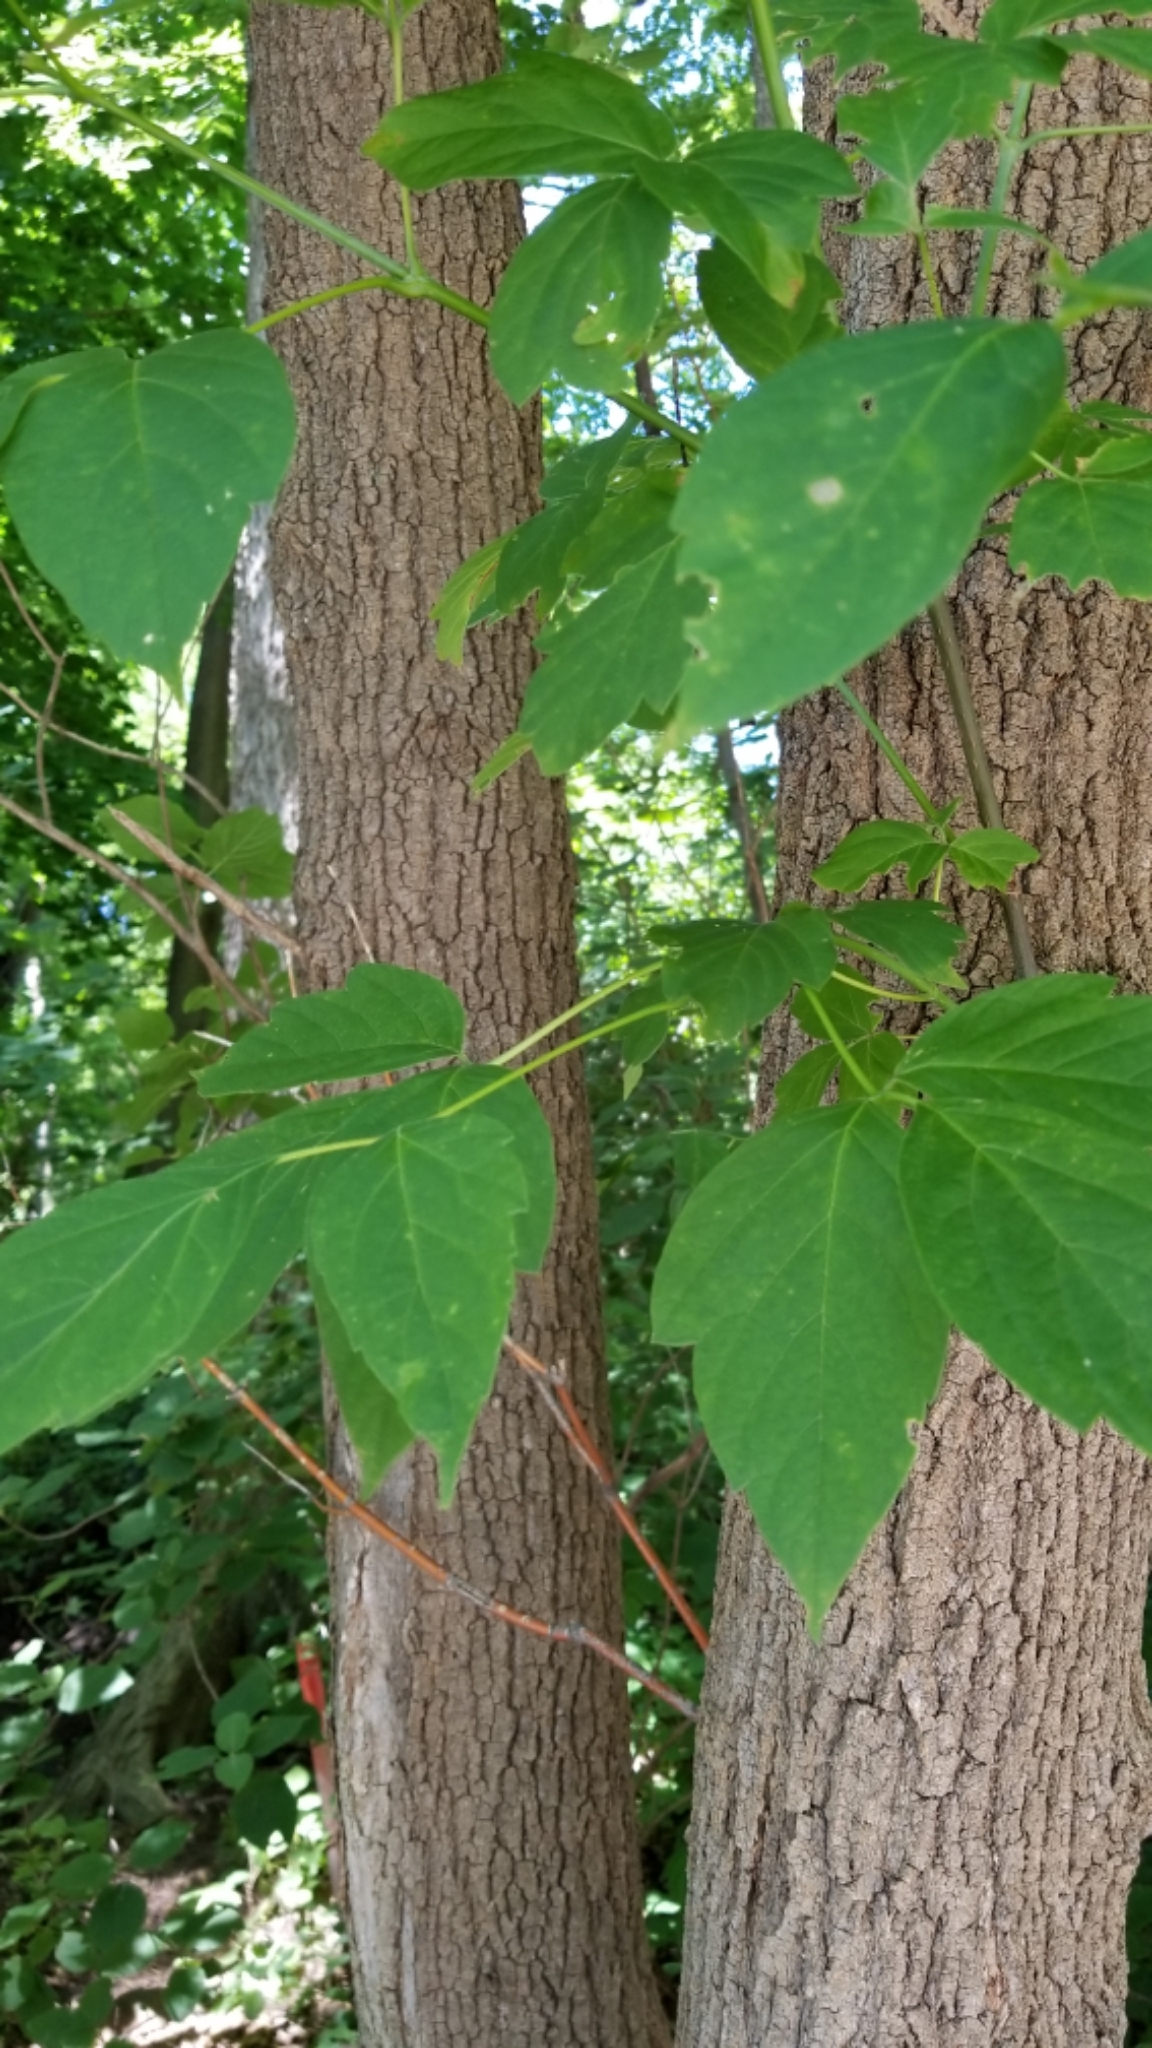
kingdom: Plantae
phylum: Tracheophyta
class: Magnoliopsida
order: Sapindales
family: Sapindaceae
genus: Acer
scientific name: Acer negundo
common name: Ashleaf maple
